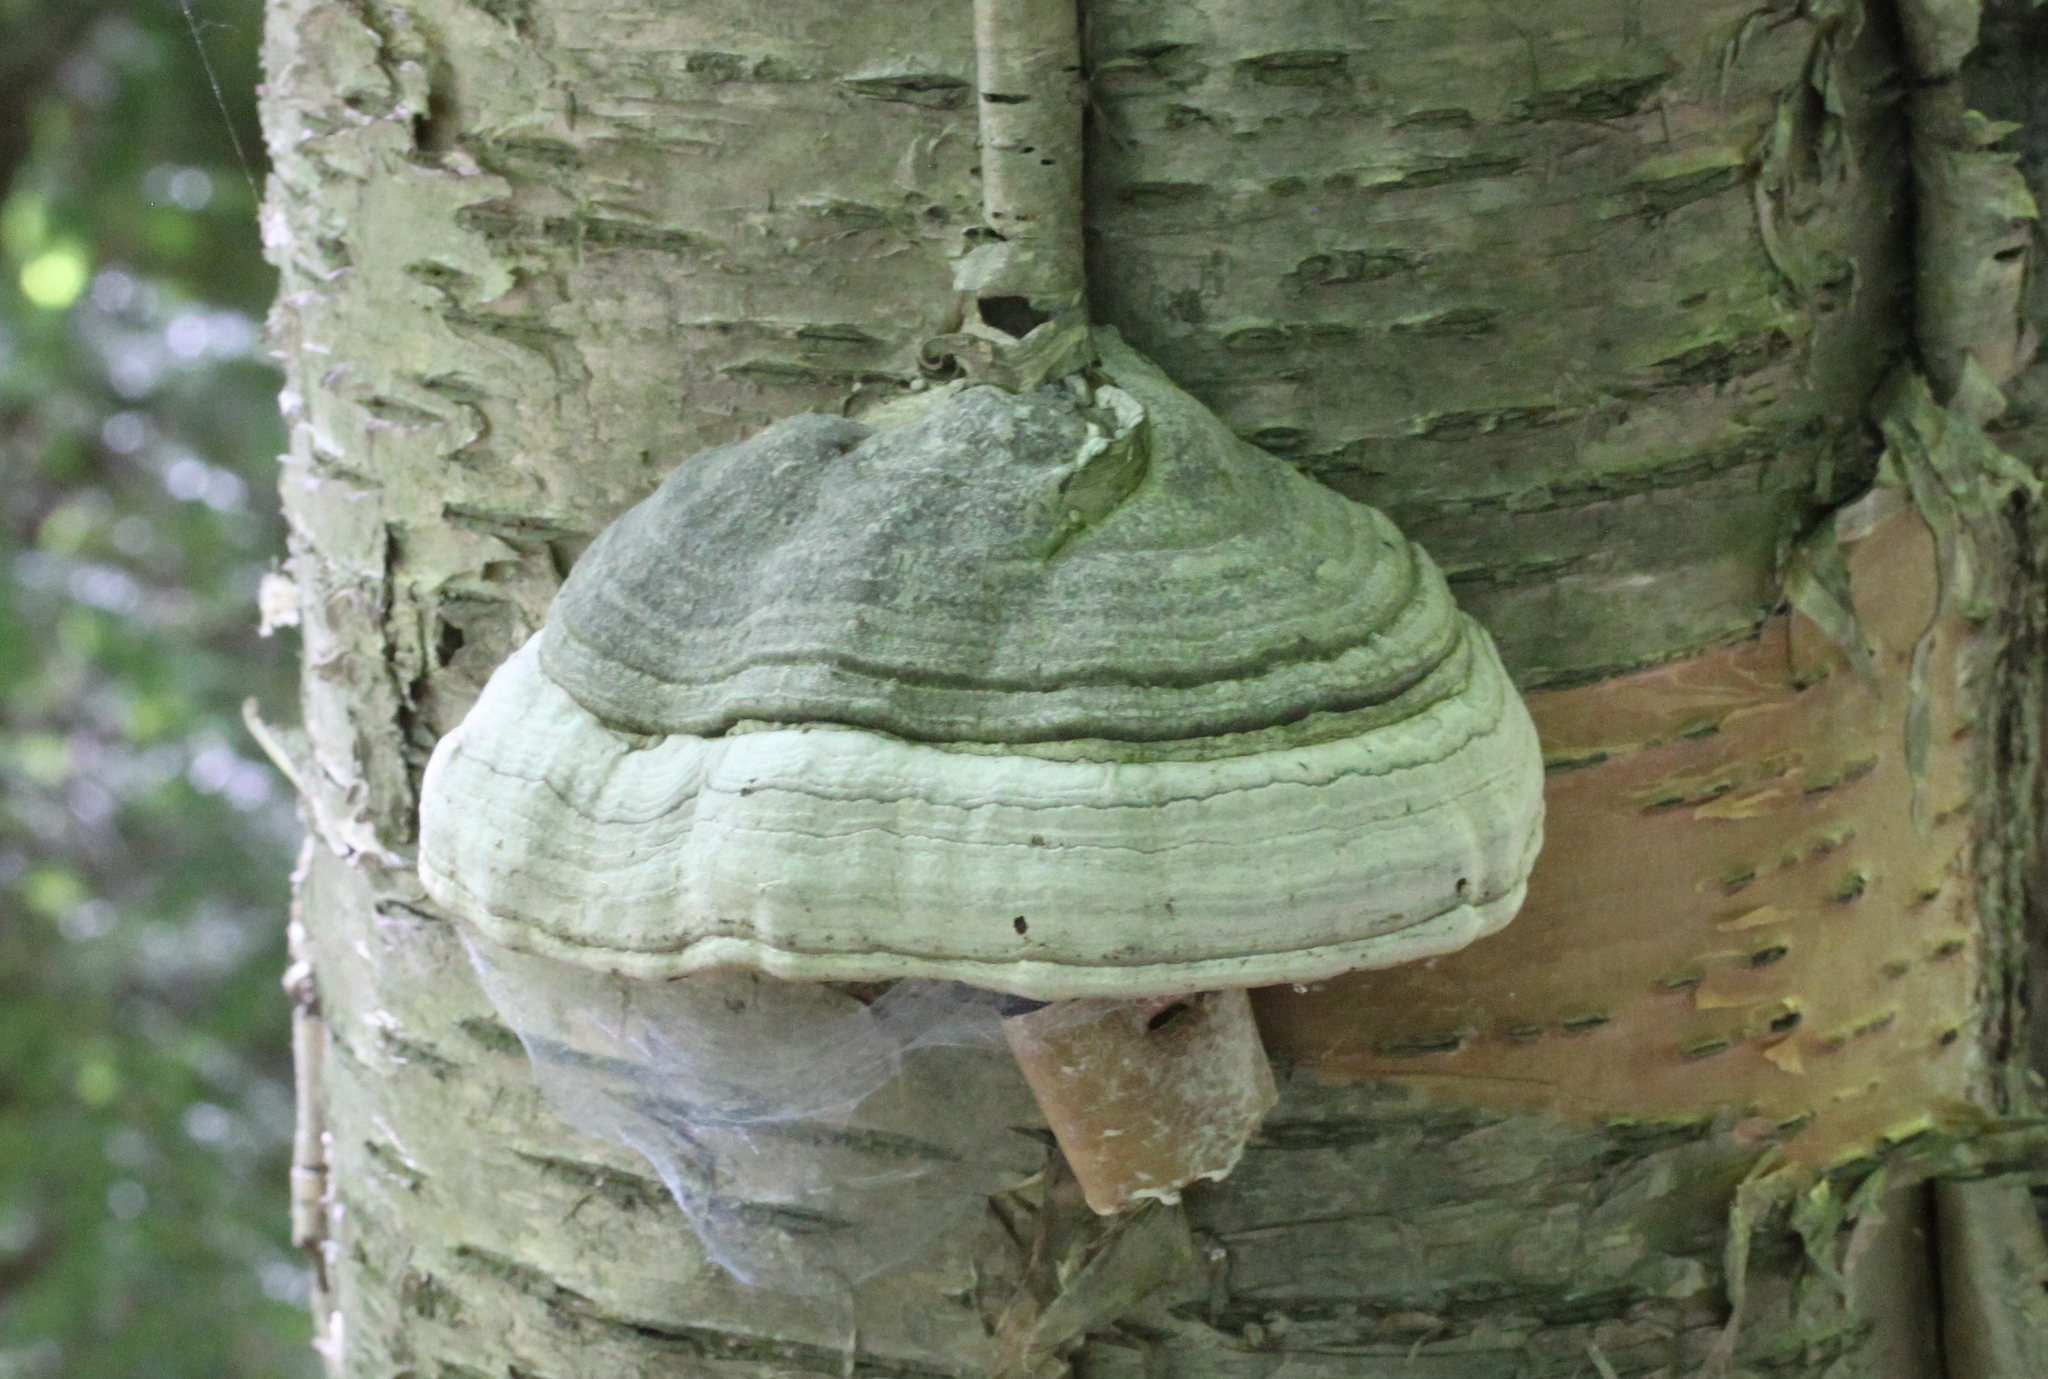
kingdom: Fungi
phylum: Basidiomycota
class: Agaricomycetes
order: Polyporales
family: Polyporaceae
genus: Fomes
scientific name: Fomes fomentarius
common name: Hoof fungus
